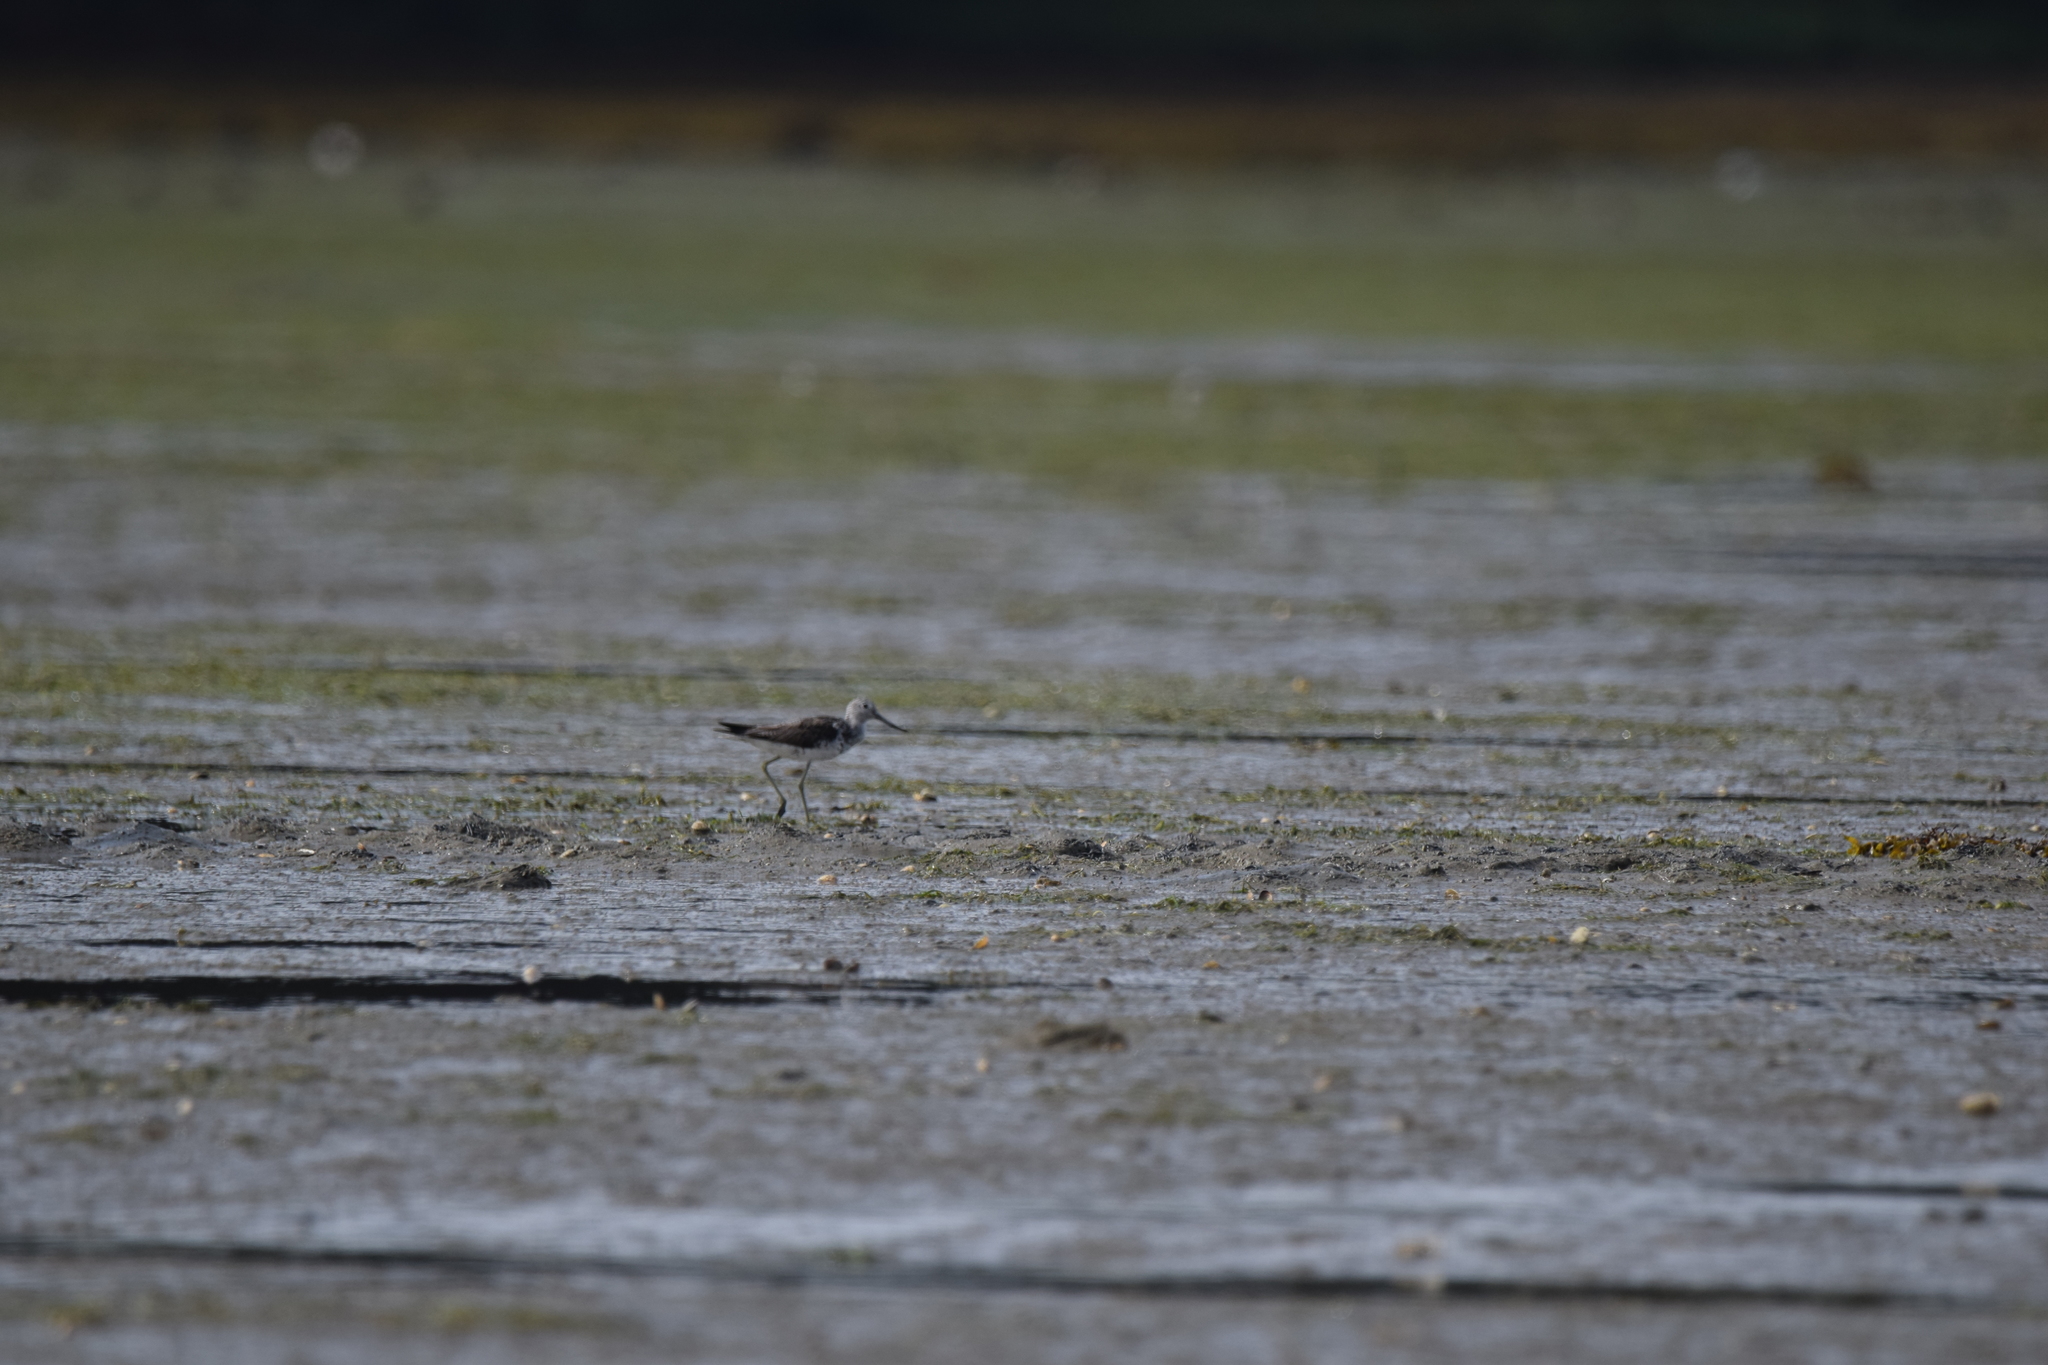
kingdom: Animalia
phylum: Chordata
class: Aves
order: Charadriiformes
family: Scolopacidae
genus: Tringa
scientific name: Tringa nebularia
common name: Common greenshank
